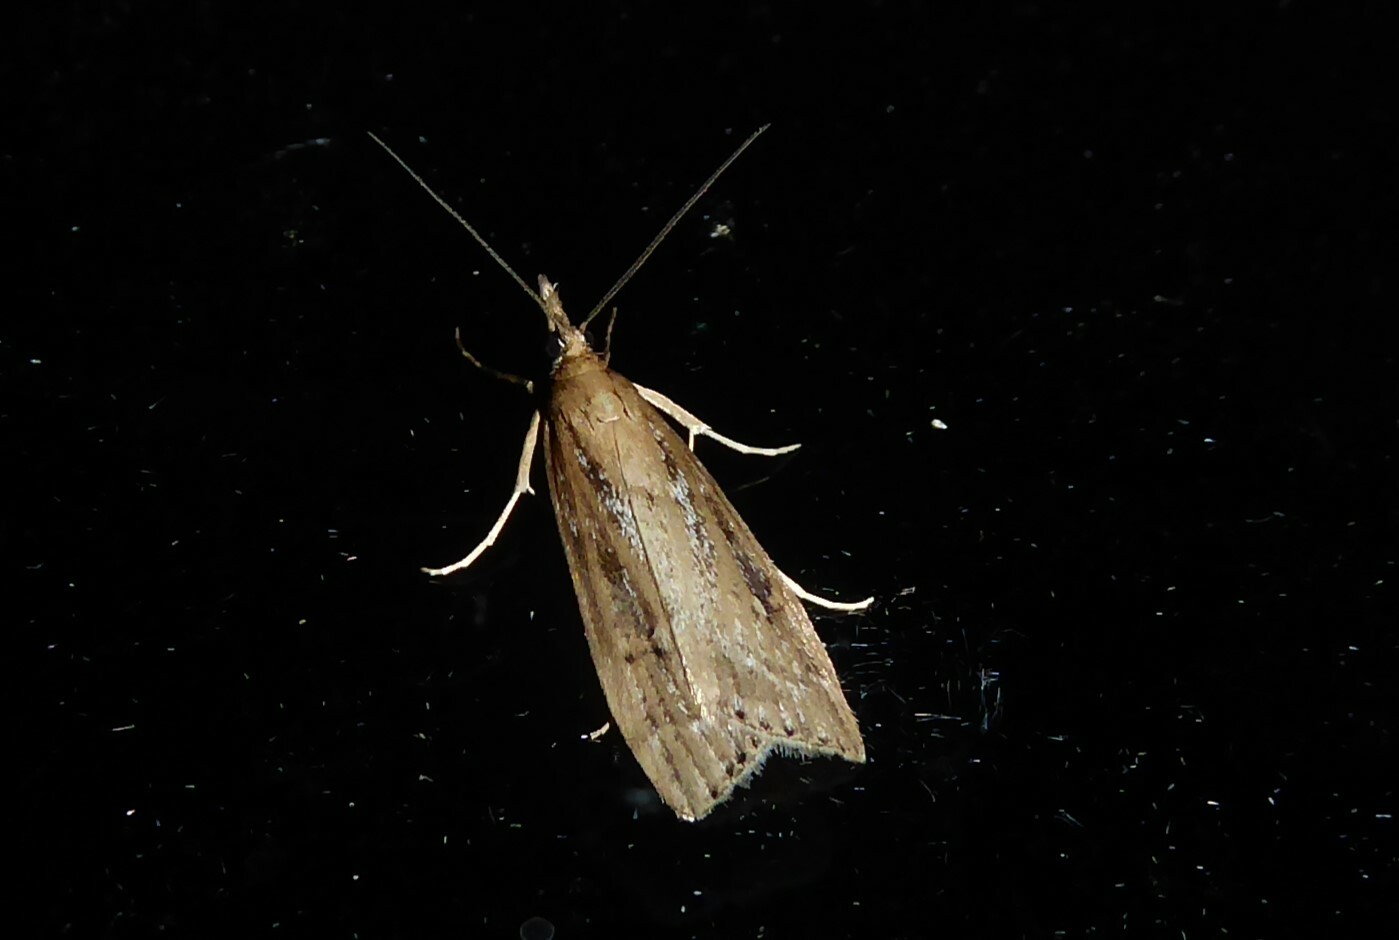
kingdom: Animalia
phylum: Arthropoda
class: Insecta
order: Lepidoptera
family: Crambidae
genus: Eudonia
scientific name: Eudonia octophora
